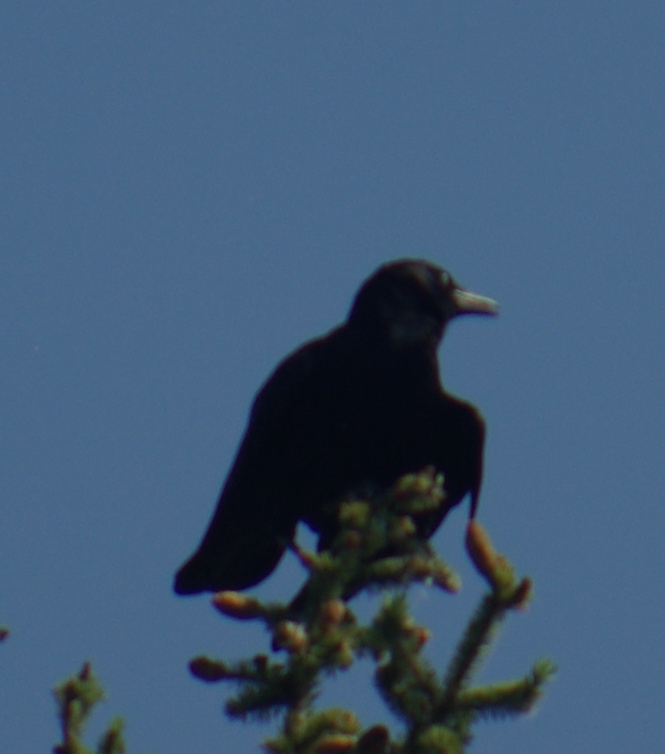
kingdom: Animalia
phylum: Chordata
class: Aves
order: Passeriformes
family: Corvidae
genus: Corvus
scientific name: Corvus brachyrhynchos
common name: American crow
